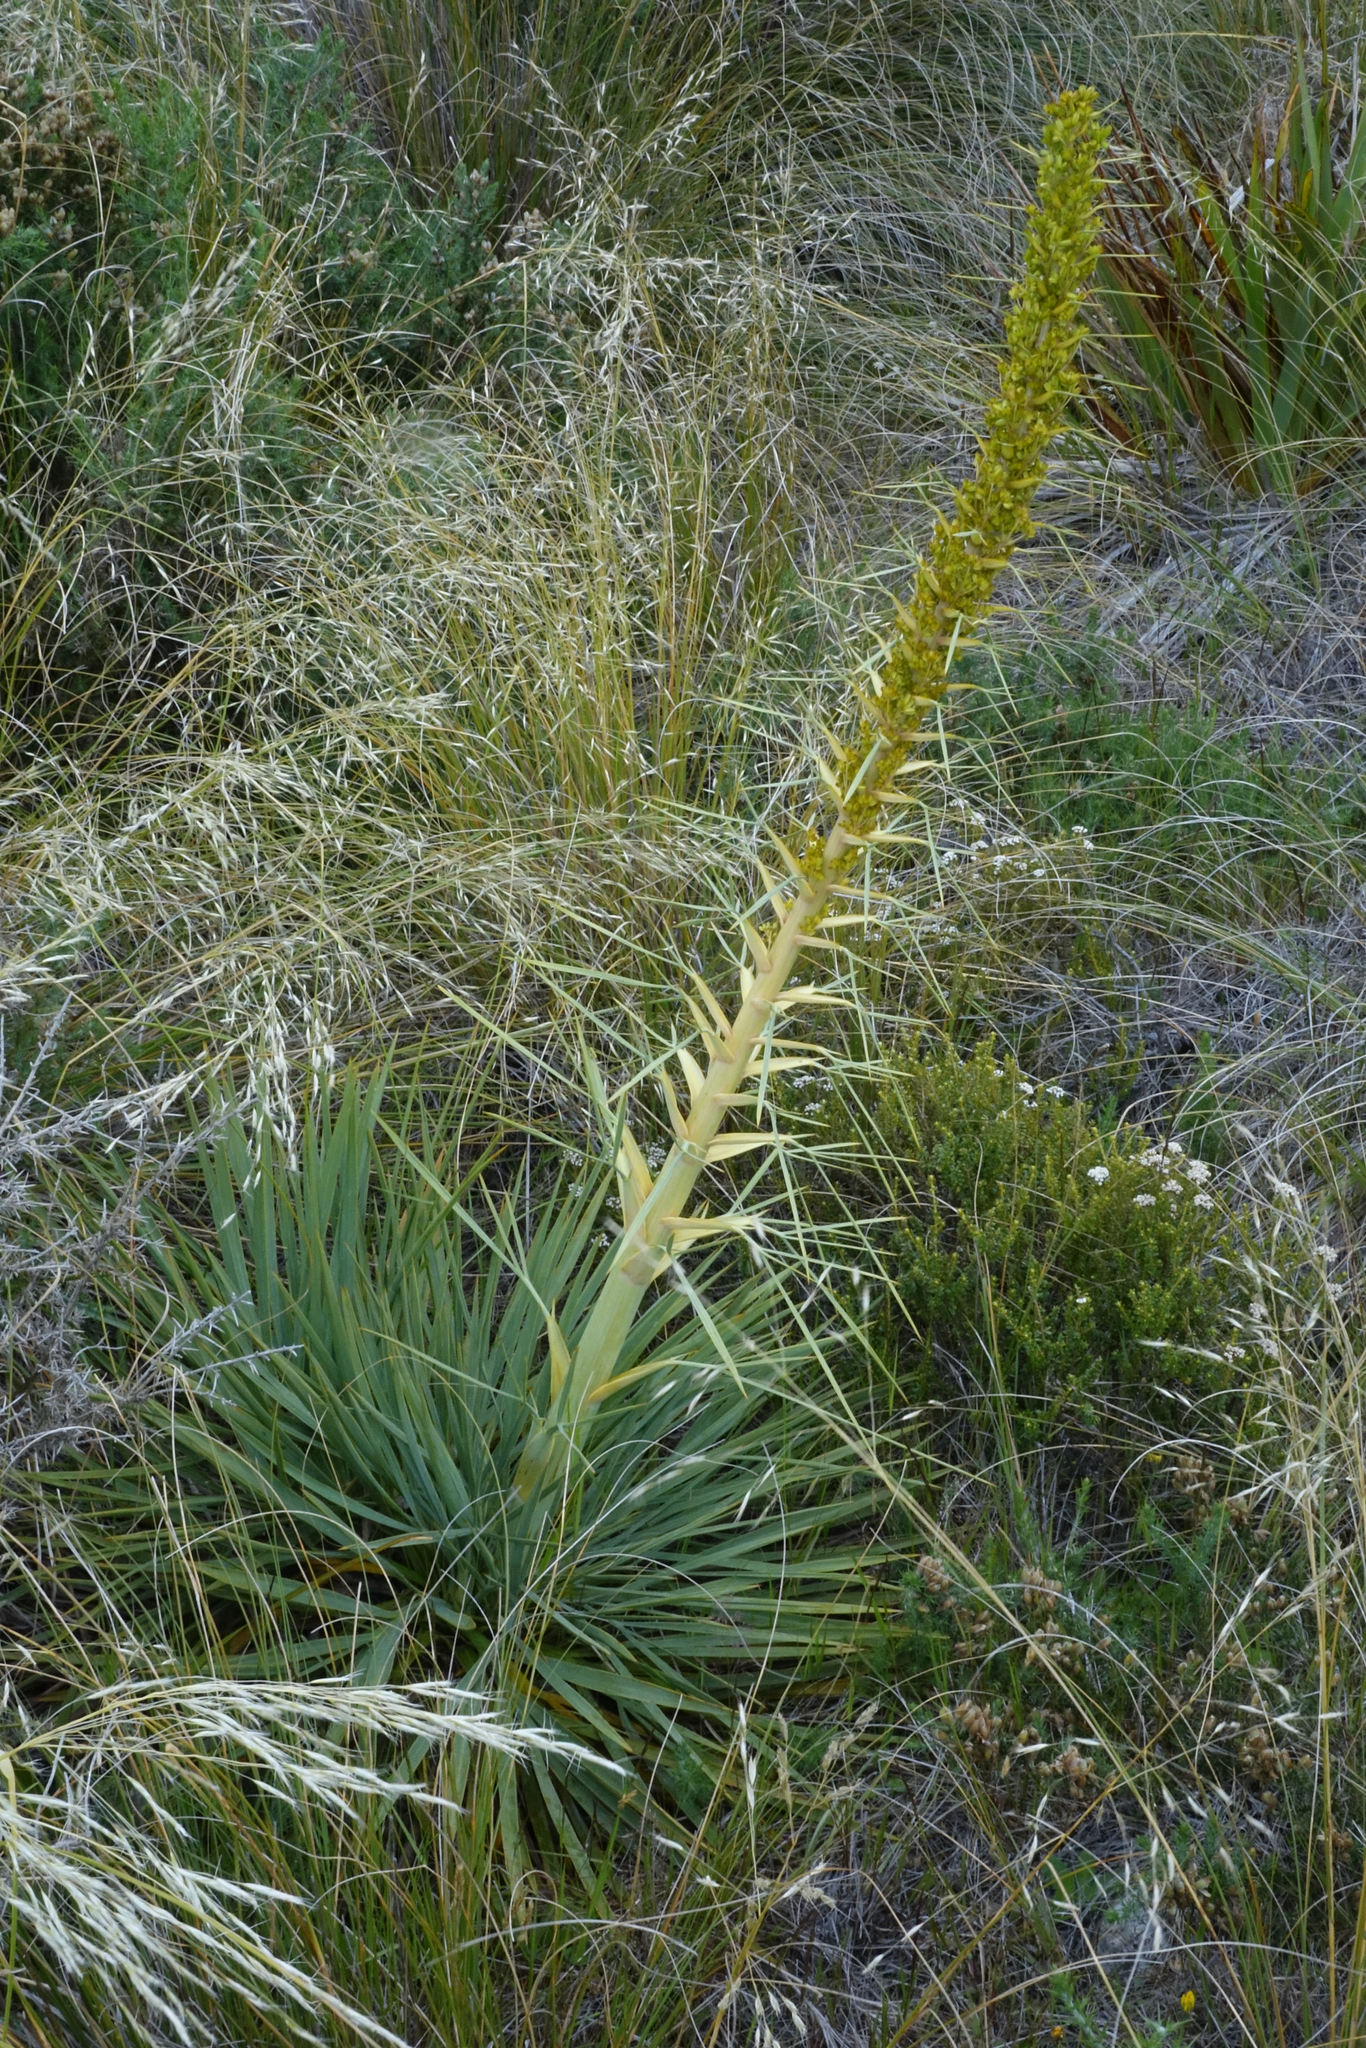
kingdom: Plantae
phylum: Tracheophyta
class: Magnoliopsida
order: Apiales
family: Apiaceae
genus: Aciphylla
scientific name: Aciphylla scott-thomsonii
